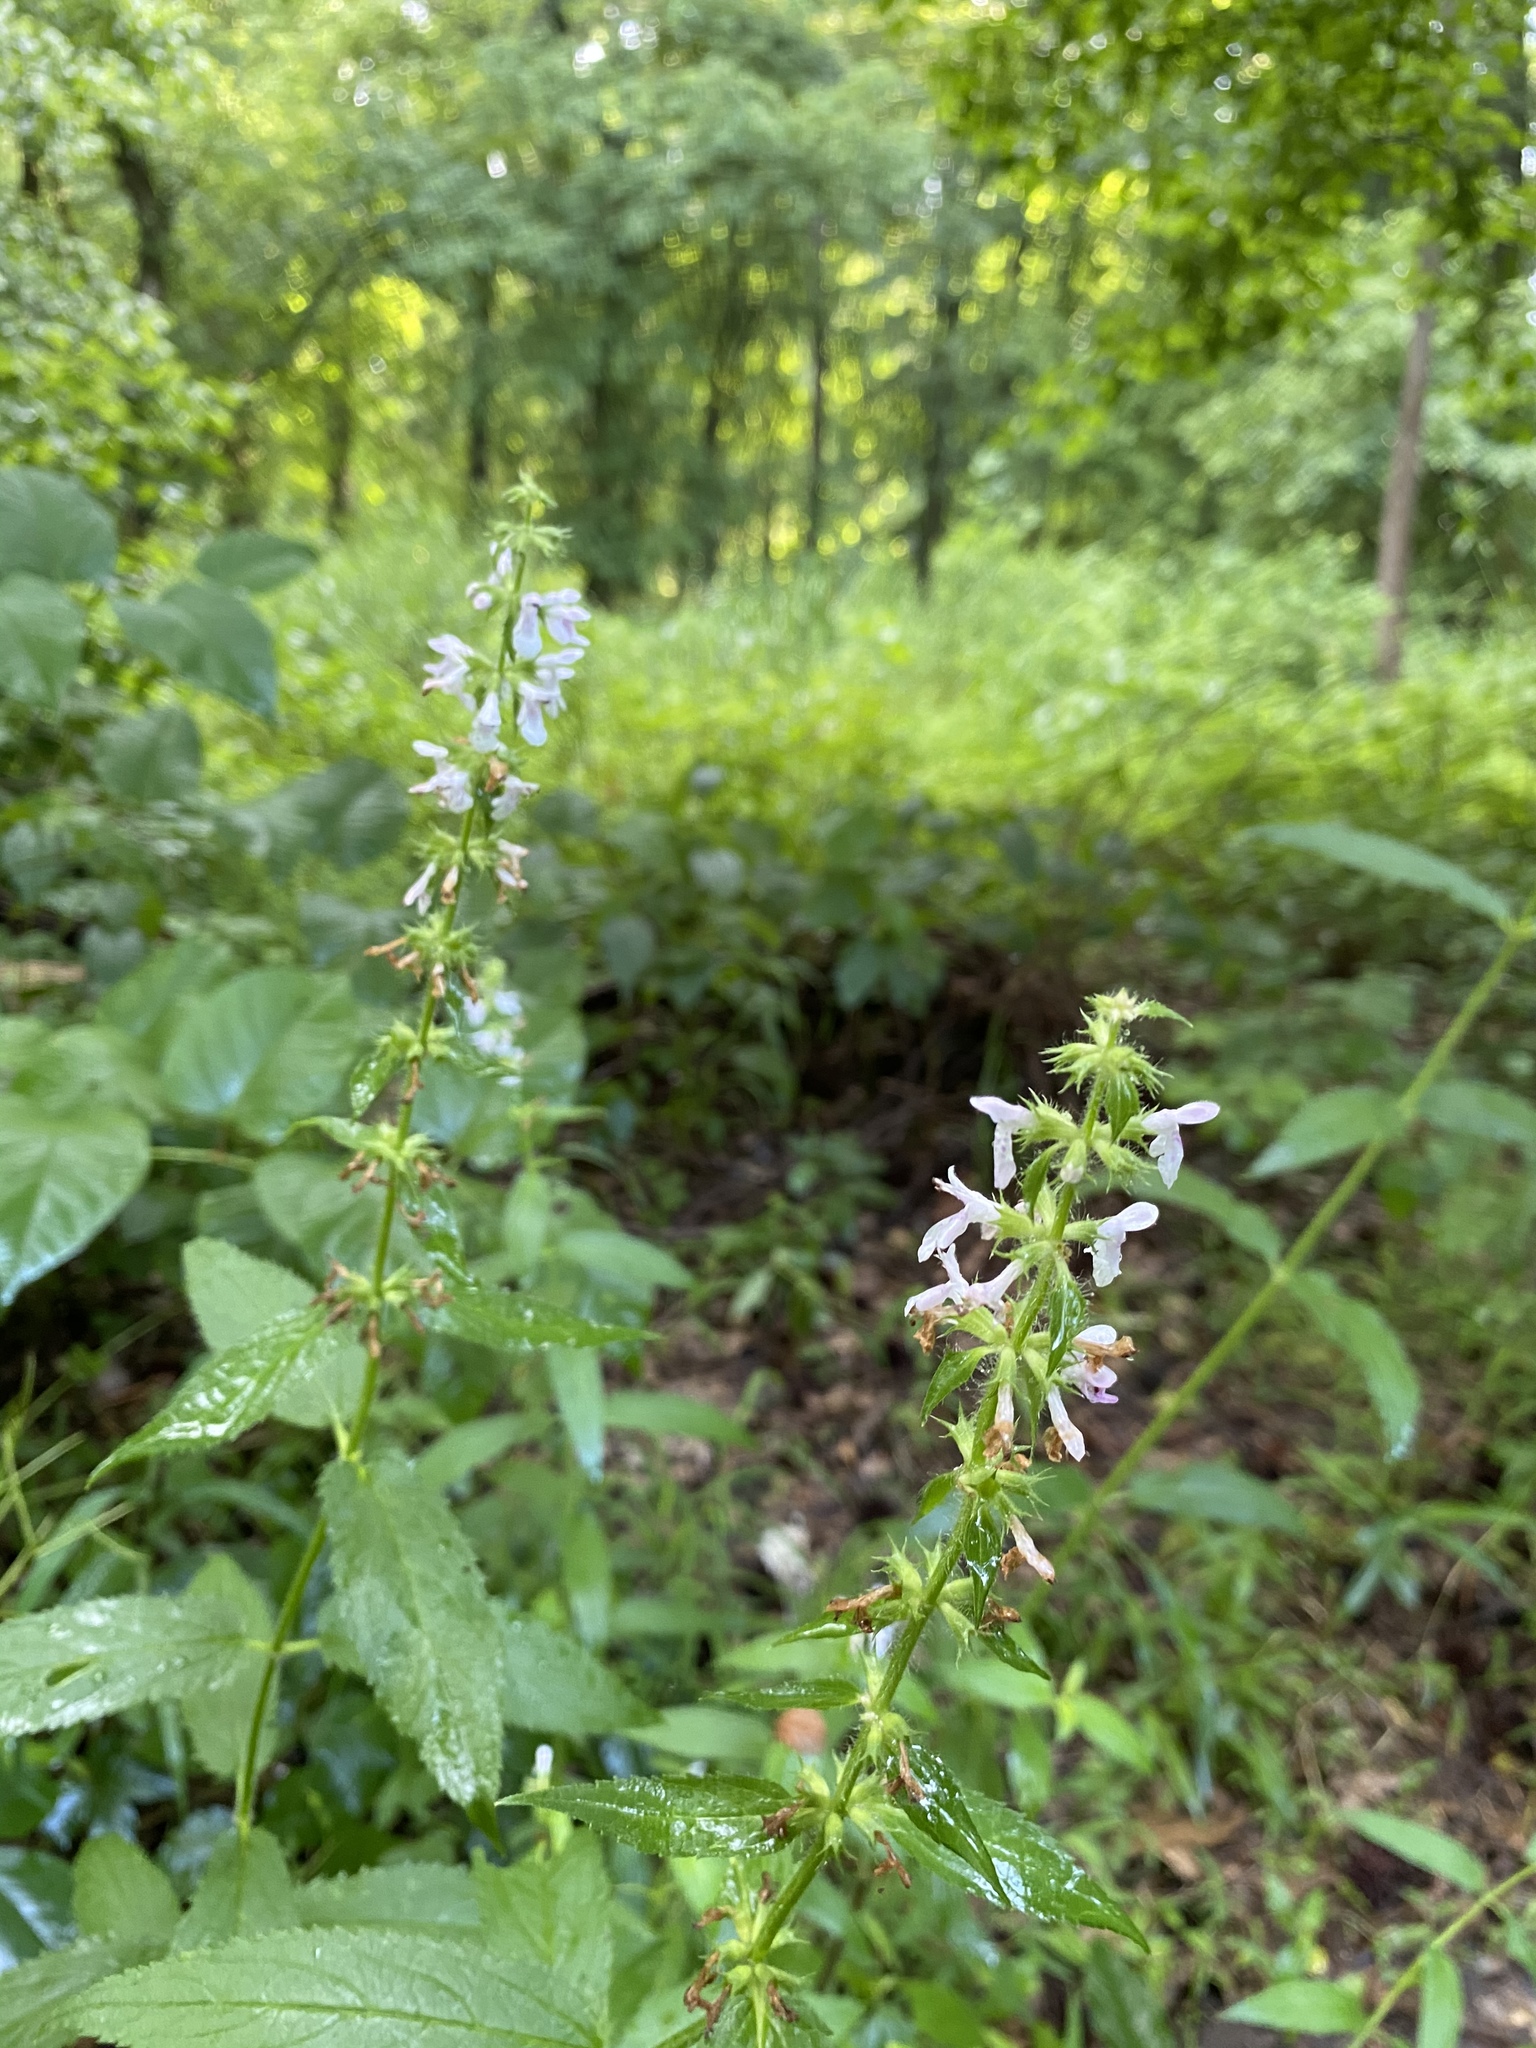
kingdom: Plantae
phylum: Tracheophyta
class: Magnoliopsida
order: Lamiales
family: Lamiaceae
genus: Stachys
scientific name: Stachys tenuifolia
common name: Smooth hedge-nettle
